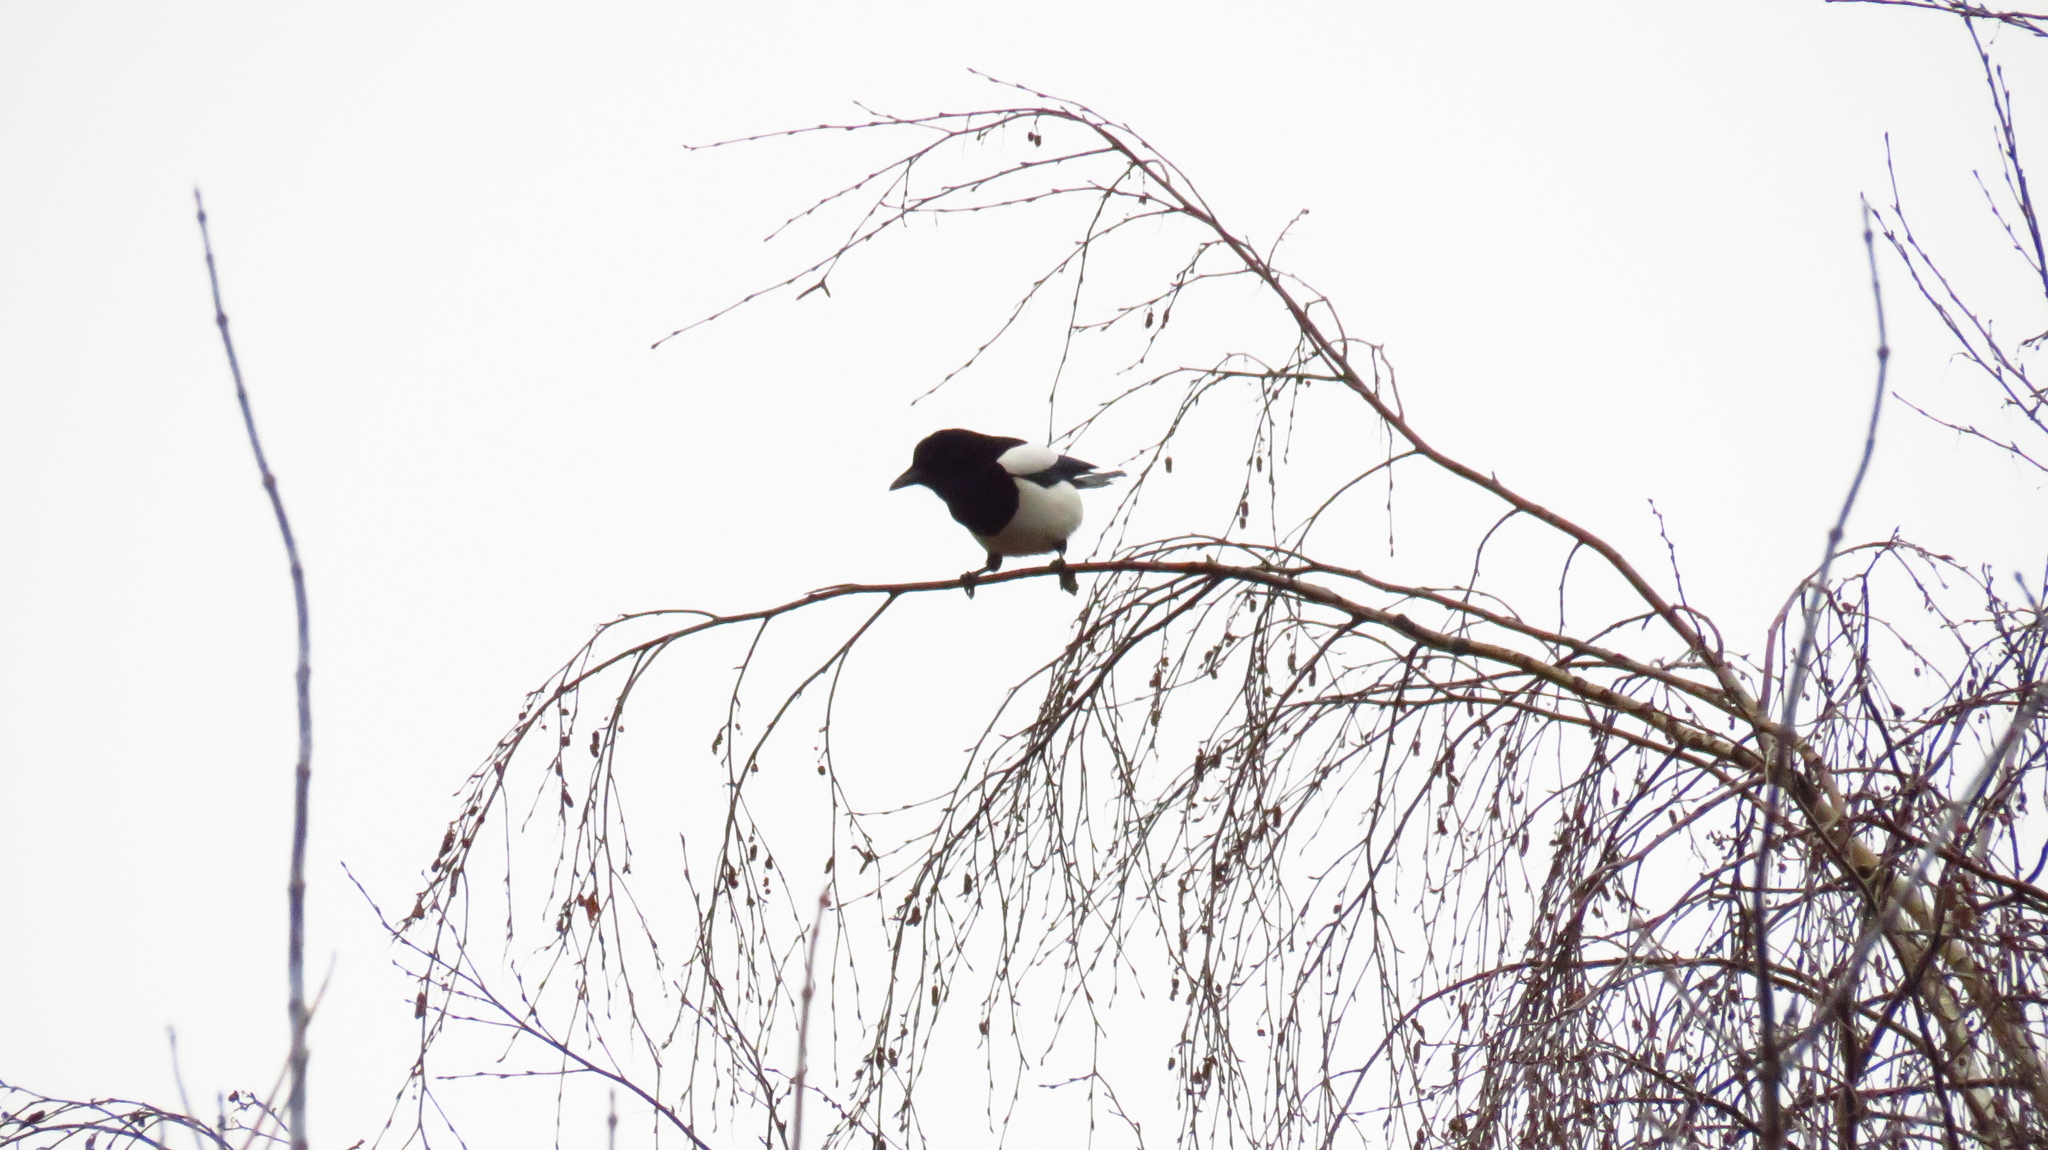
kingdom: Animalia
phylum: Chordata
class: Aves
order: Passeriformes
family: Corvidae
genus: Pica
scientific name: Pica pica
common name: Eurasian magpie
